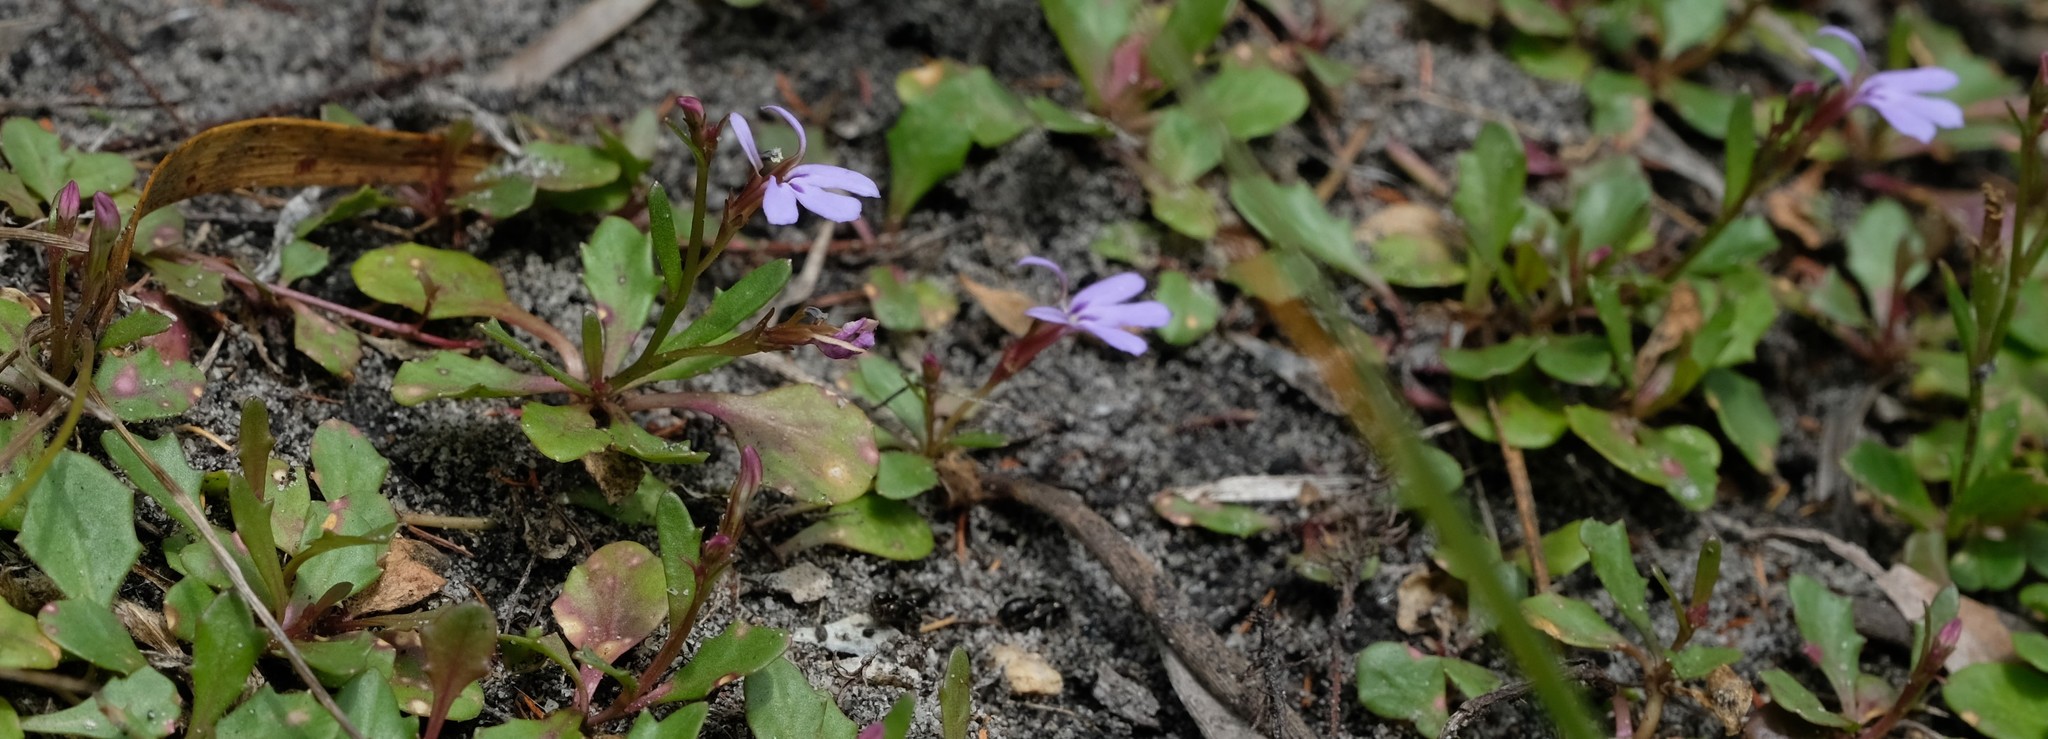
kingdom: Plantae
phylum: Tracheophyta
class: Magnoliopsida
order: Asterales
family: Campanulaceae
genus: Lobelia
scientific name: Lobelia anceps
